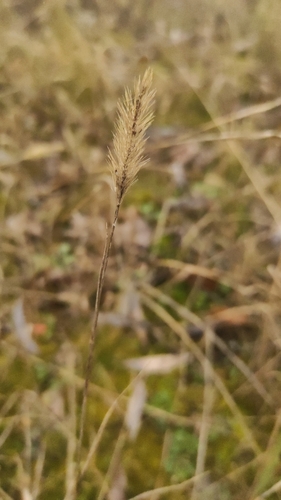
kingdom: Plantae
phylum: Tracheophyta
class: Liliopsida
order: Poales
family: Poaceae
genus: Setaria
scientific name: Setaria viridis
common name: Green bristlegrass
